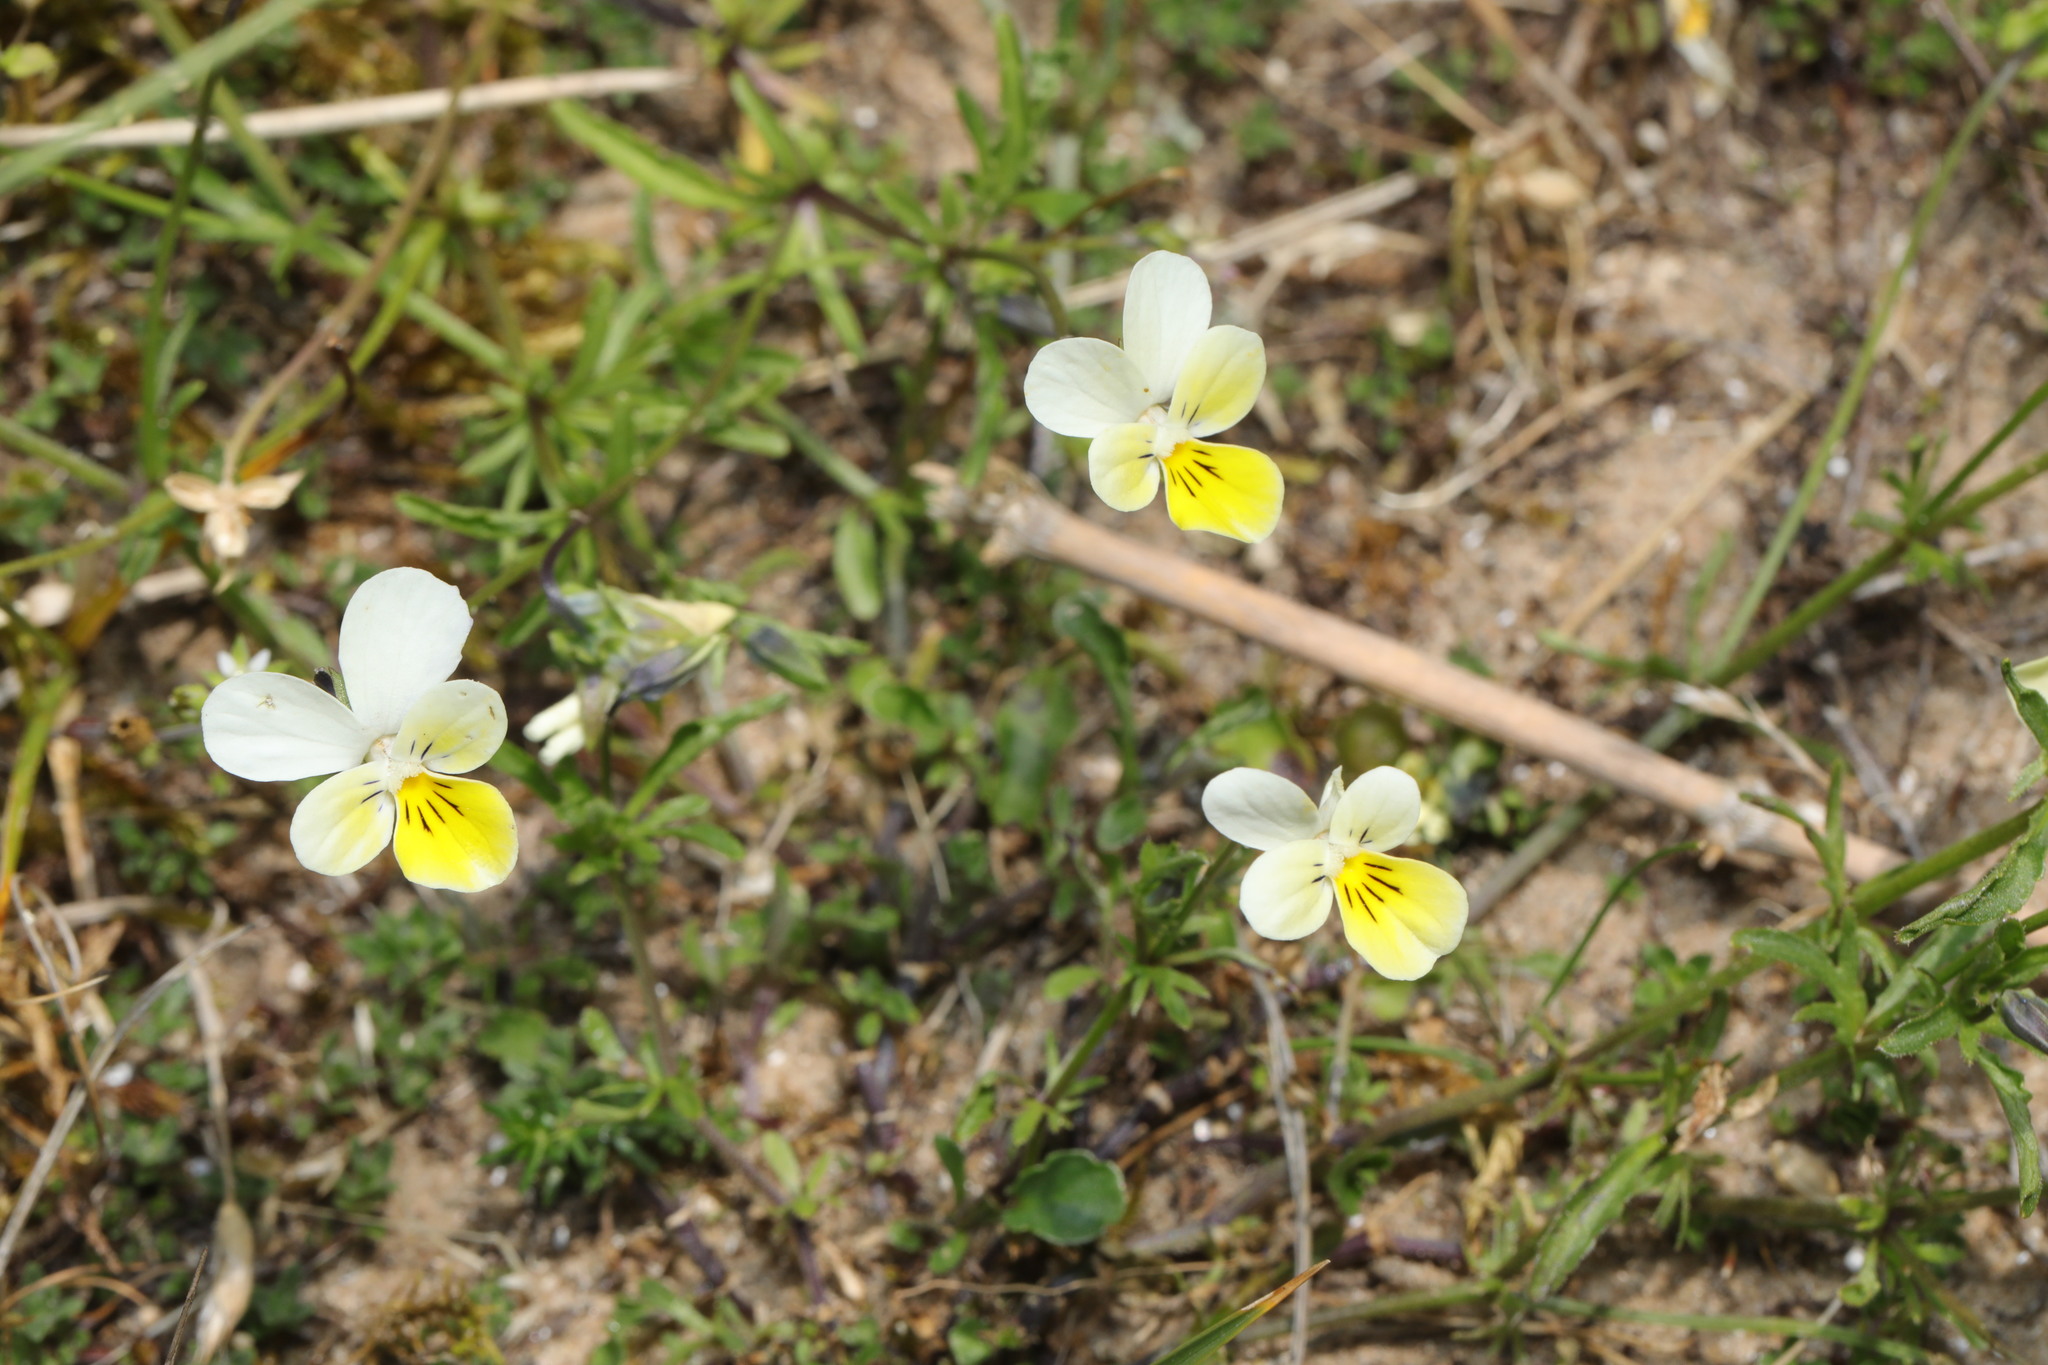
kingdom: Plantae
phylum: Tracheophyta
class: Magnoliopsida
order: Malpighiales
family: Violaceae
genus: Viola
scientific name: Viola tricolor
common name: Pansy
